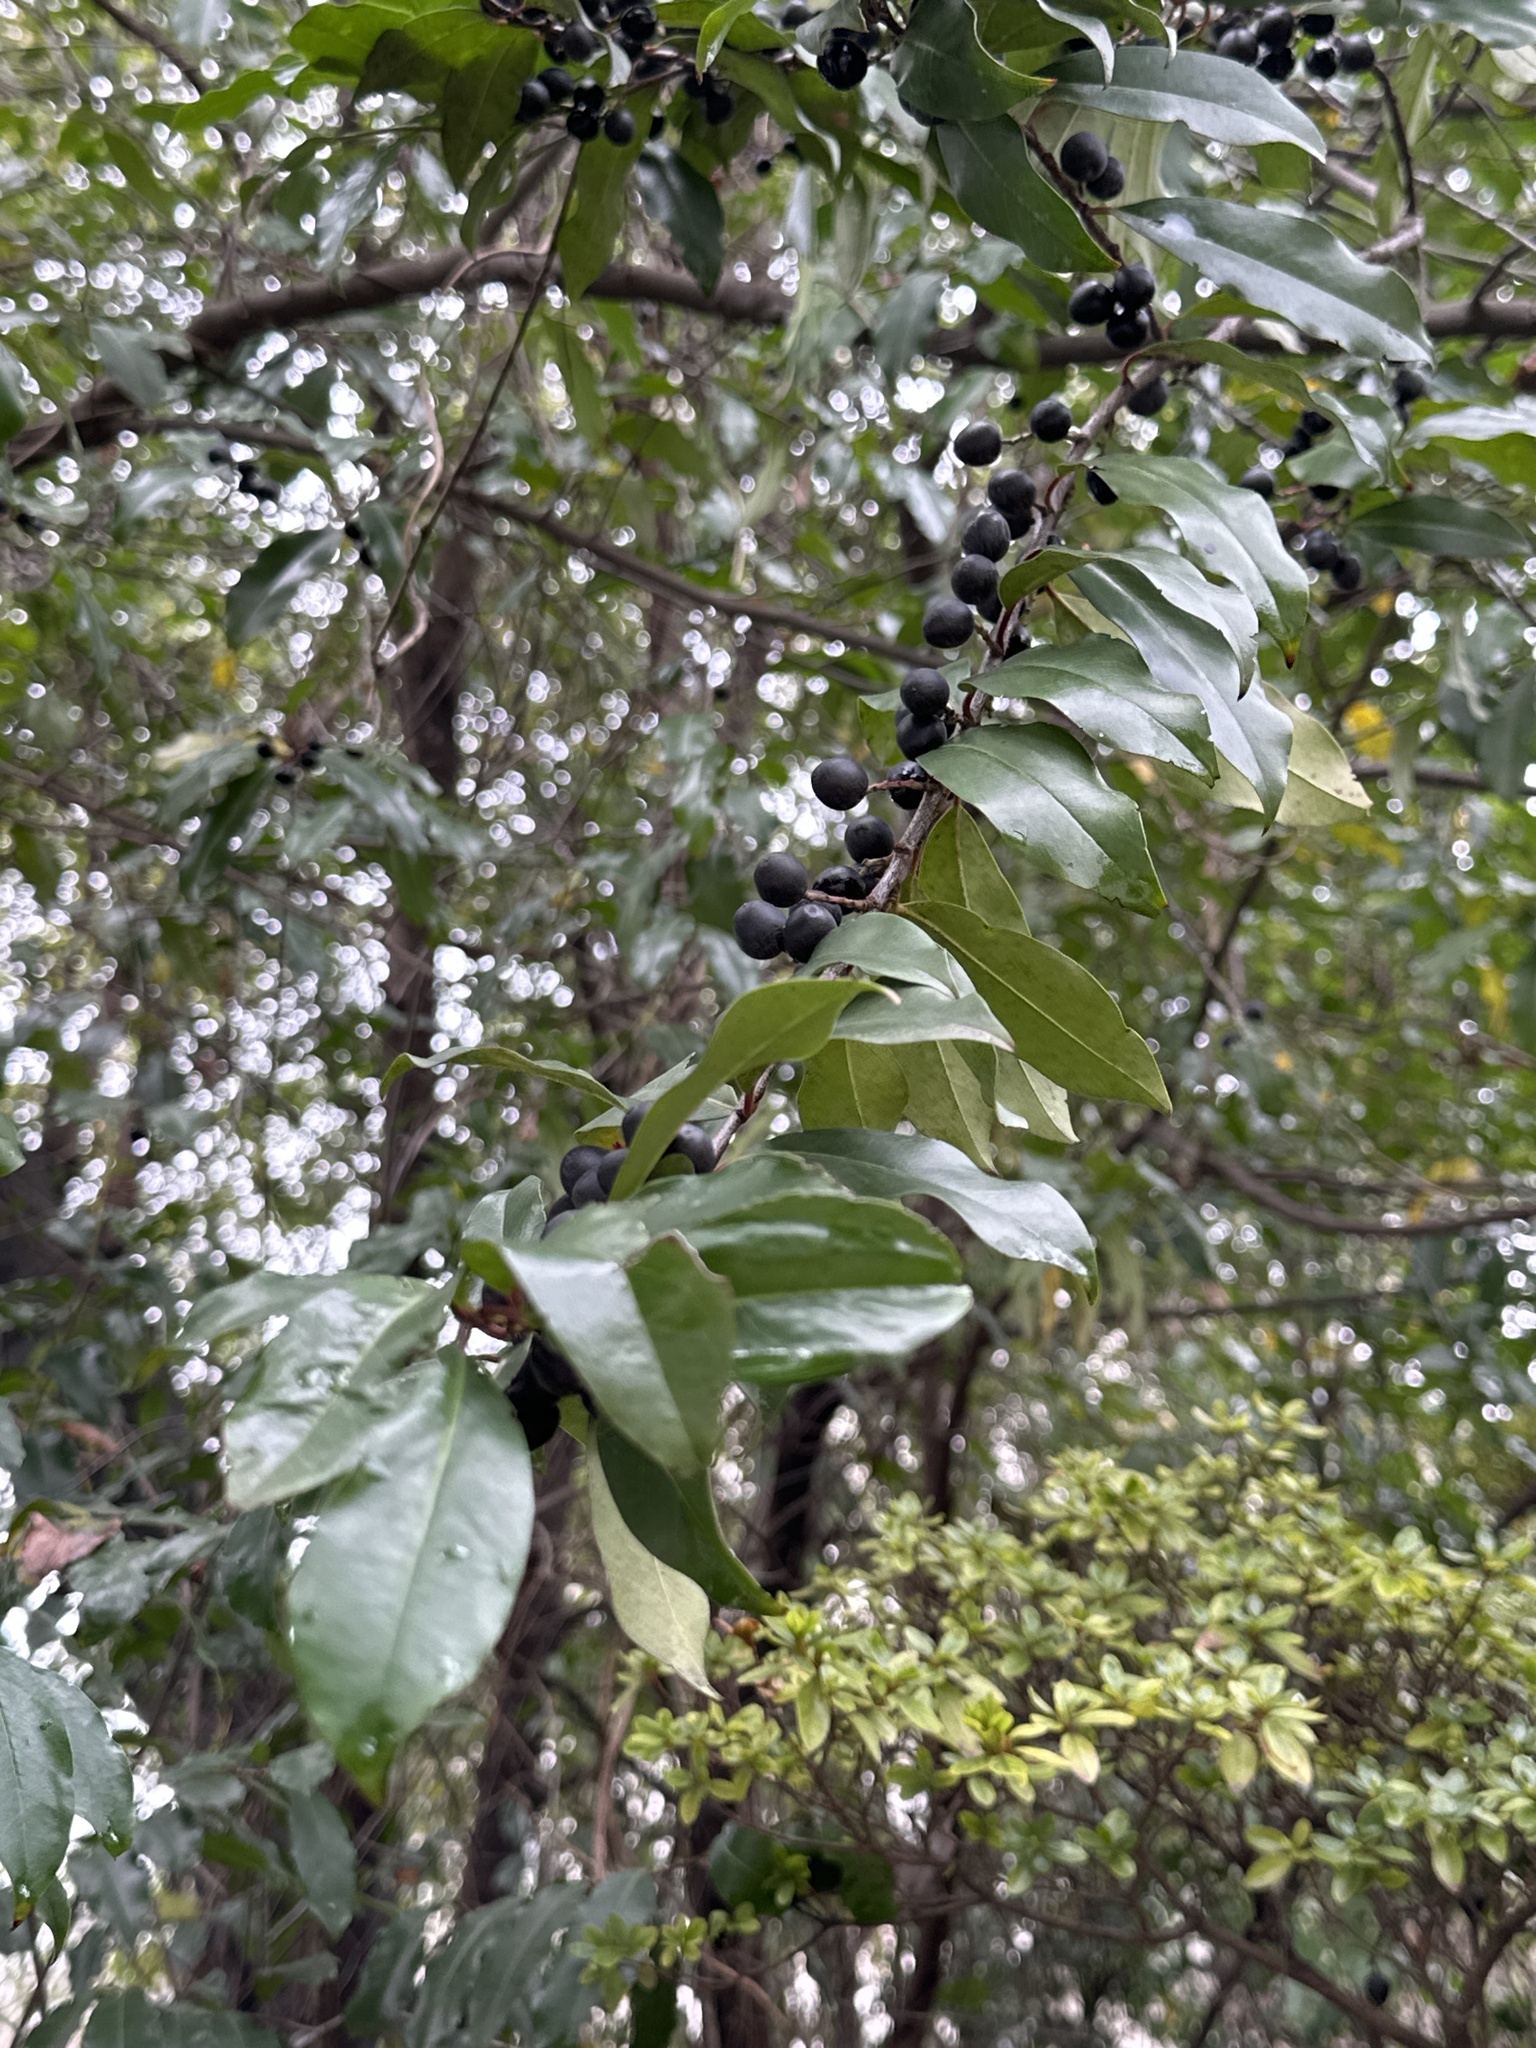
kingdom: Plantae
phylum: Tracheophyta
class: Magnoliopsida
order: Rosales
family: Rosaceae
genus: Prunus
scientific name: Prunus caroliniana
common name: Carolina laurel cherry
